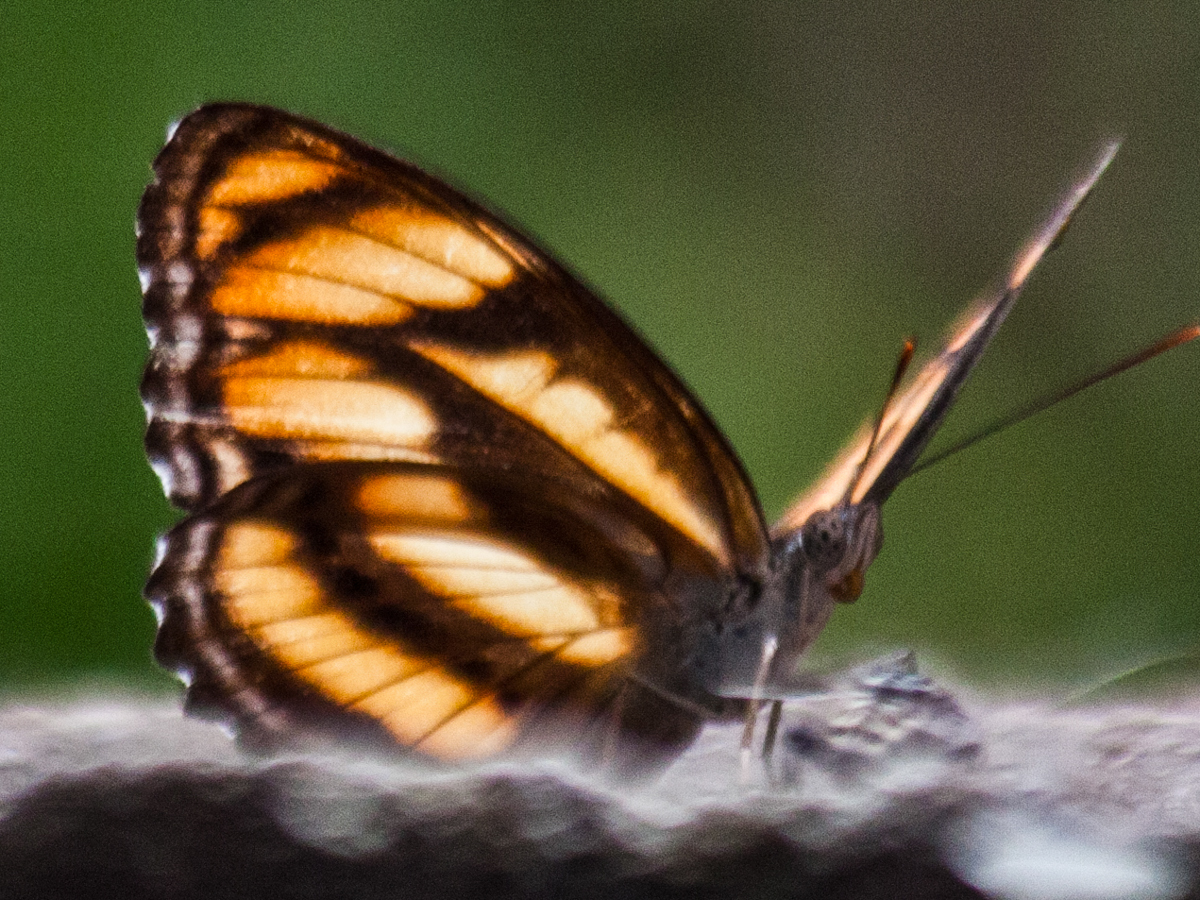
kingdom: Animalia
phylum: Arthropoda
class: Insecta
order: Lepidoptera
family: Nymphalidae
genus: Parathyma
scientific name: Parathyma nefte
